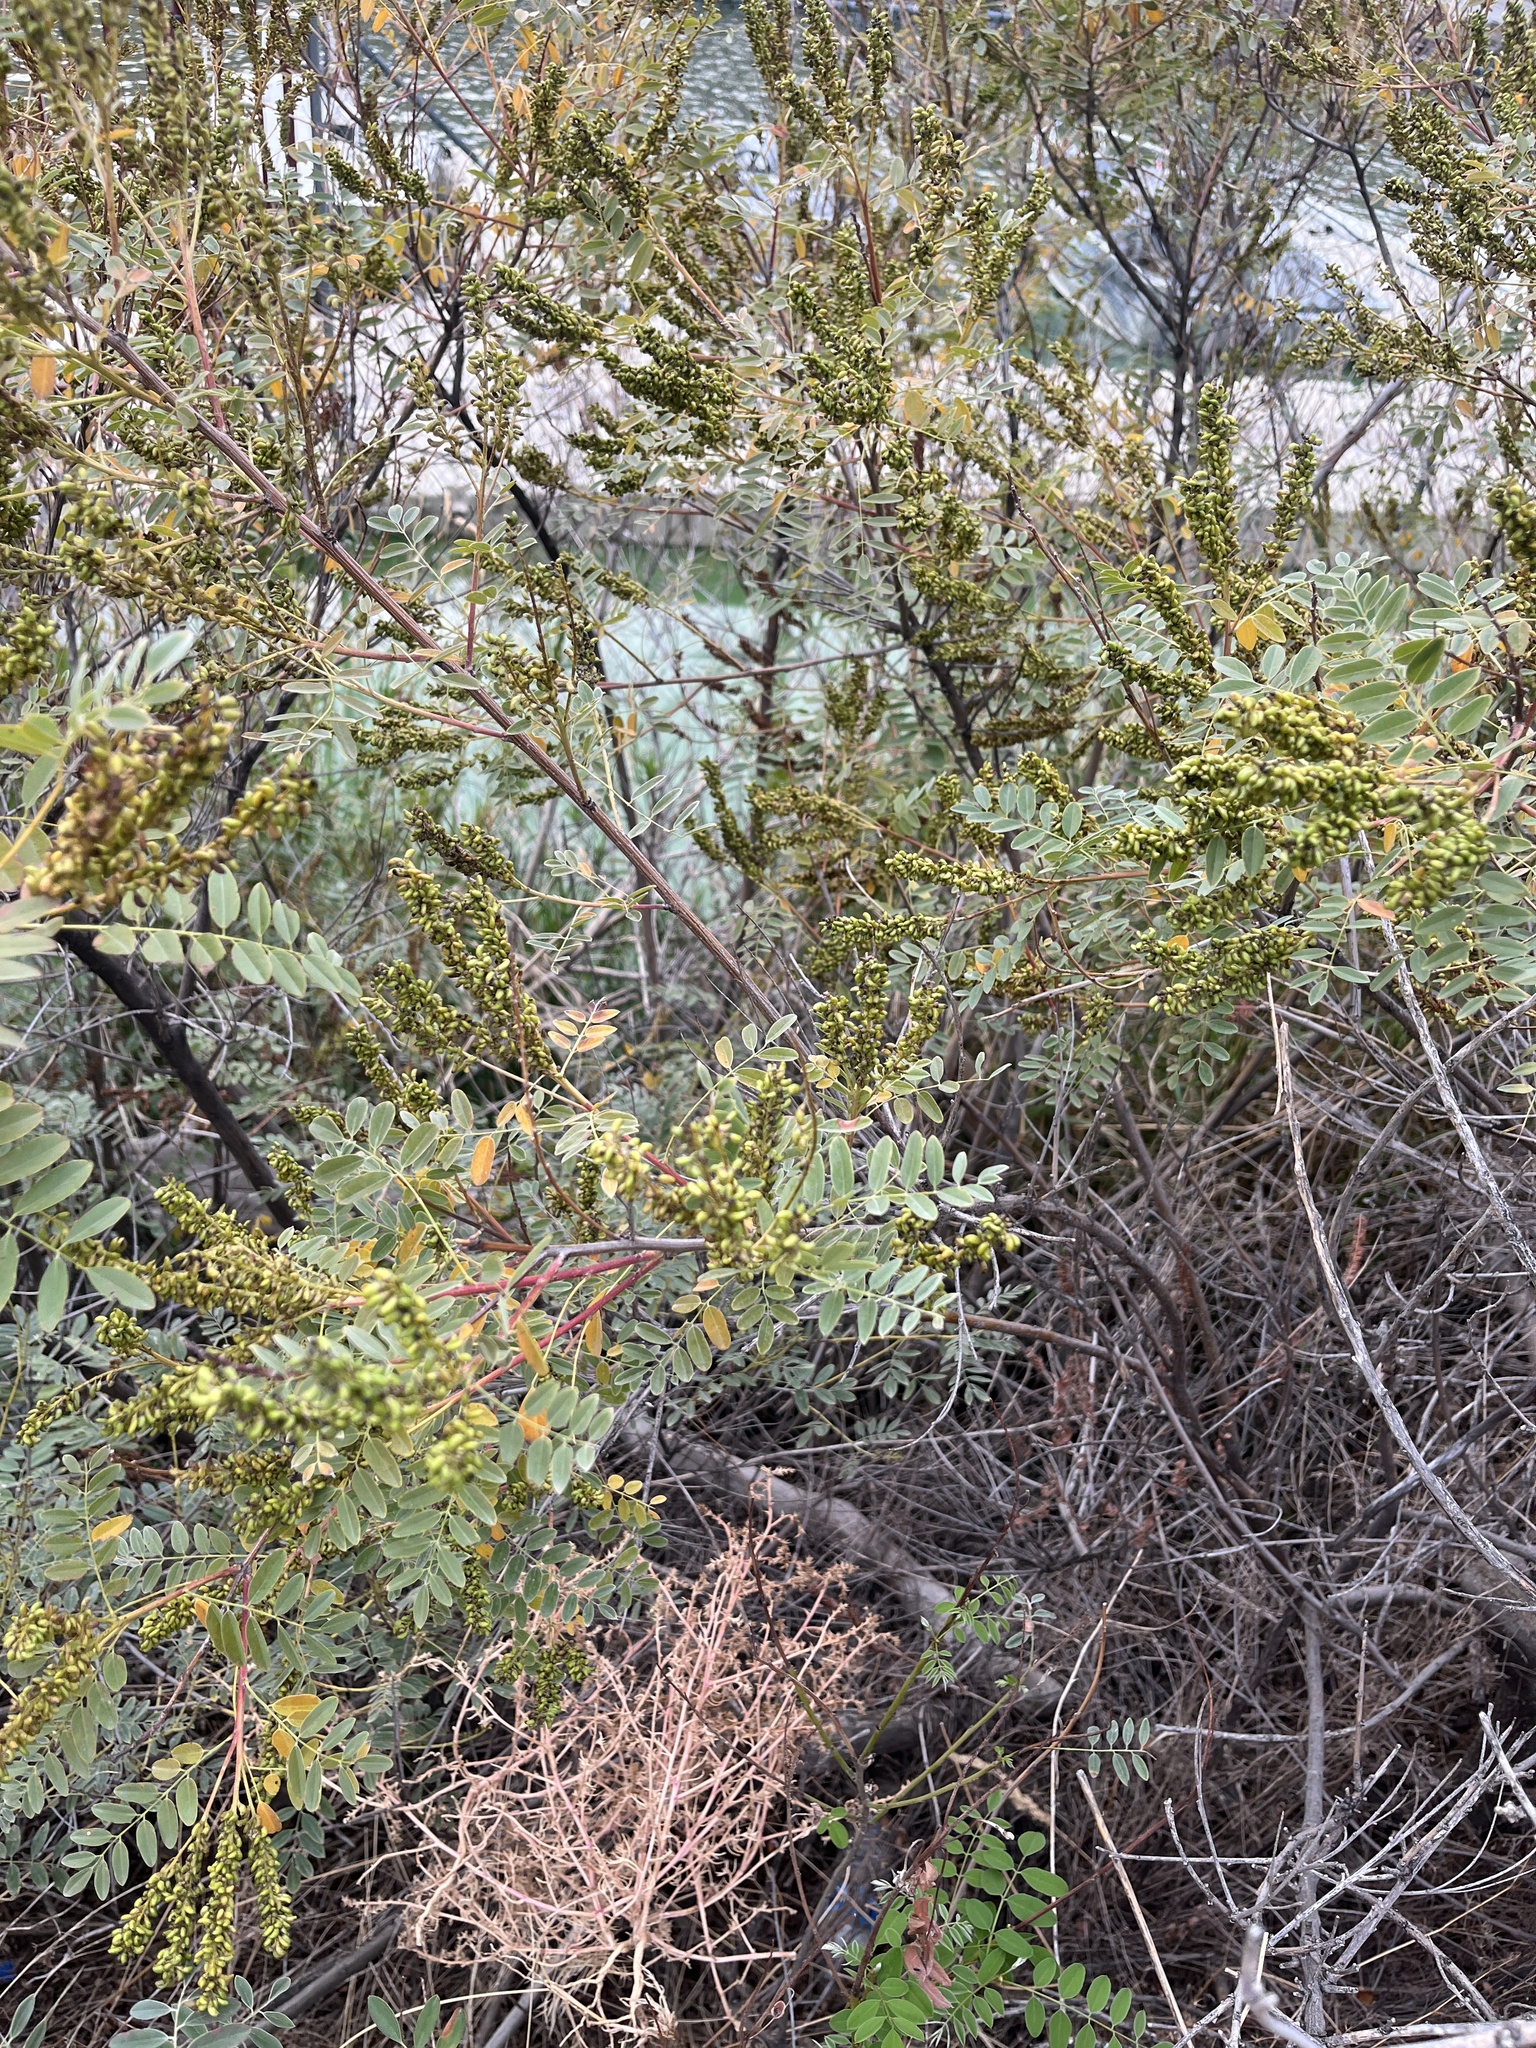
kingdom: Plantae
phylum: Tracheophyta
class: Magnoliopsida
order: Fabales
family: Fabaceae
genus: Amorpha
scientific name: Amorpha fruticosa
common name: False indigo
